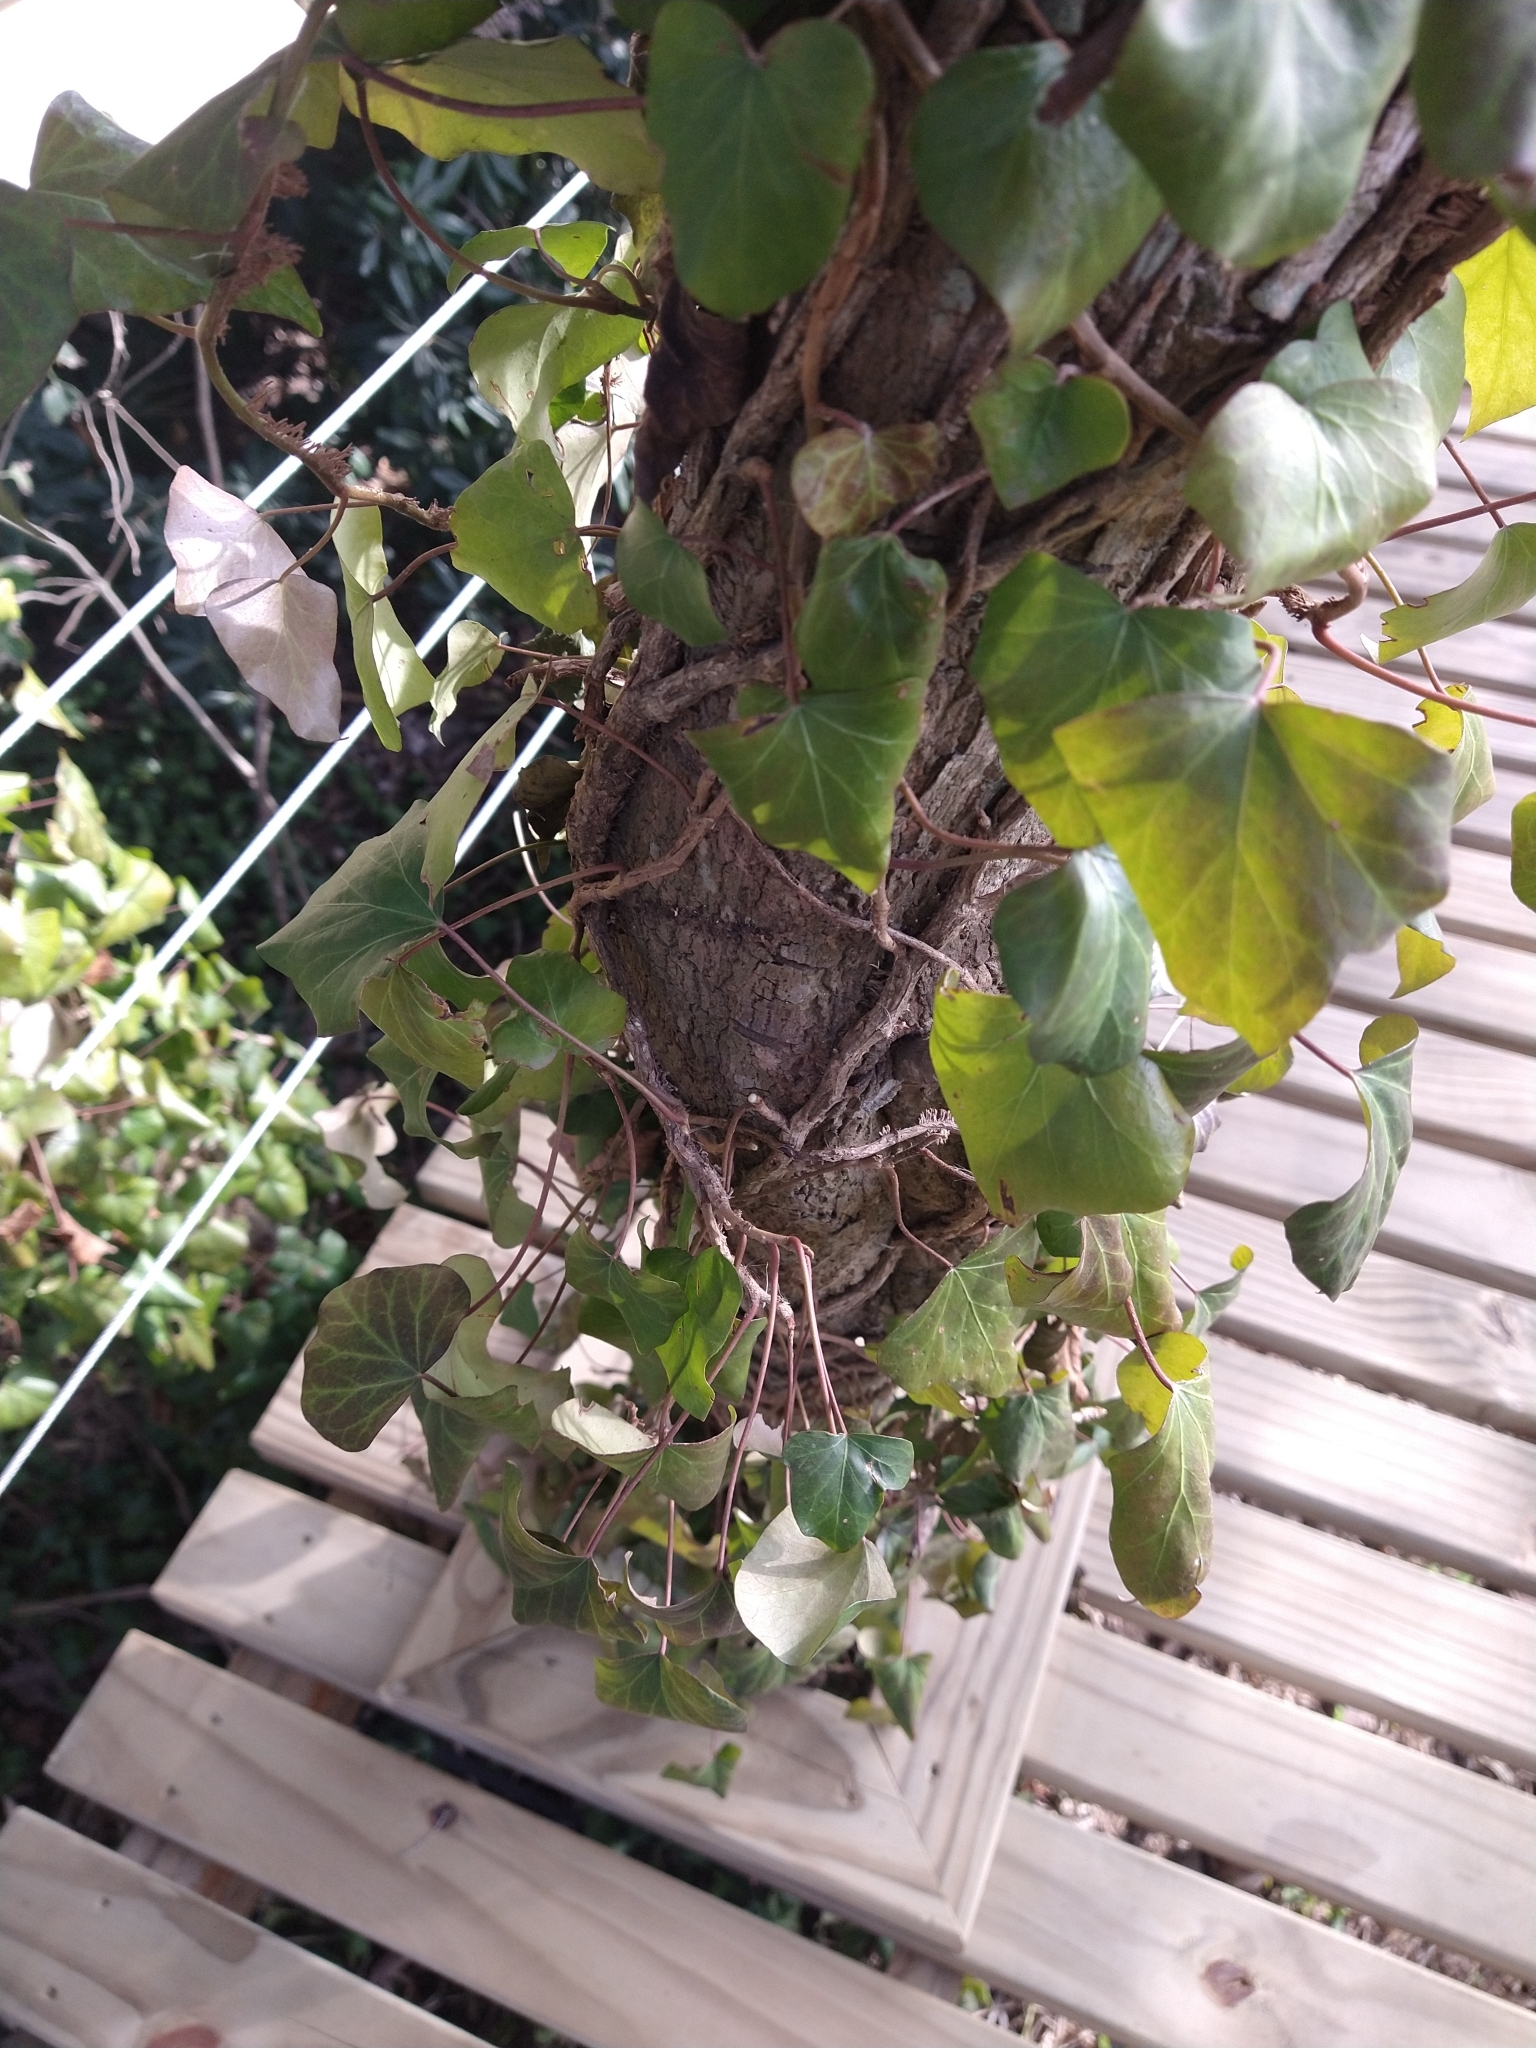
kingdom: Plantae
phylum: Tracheophyta
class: Magnoliopsida
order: Apiales
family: Araliaceae
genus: Hedera
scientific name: Hedera helix
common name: Ivy
